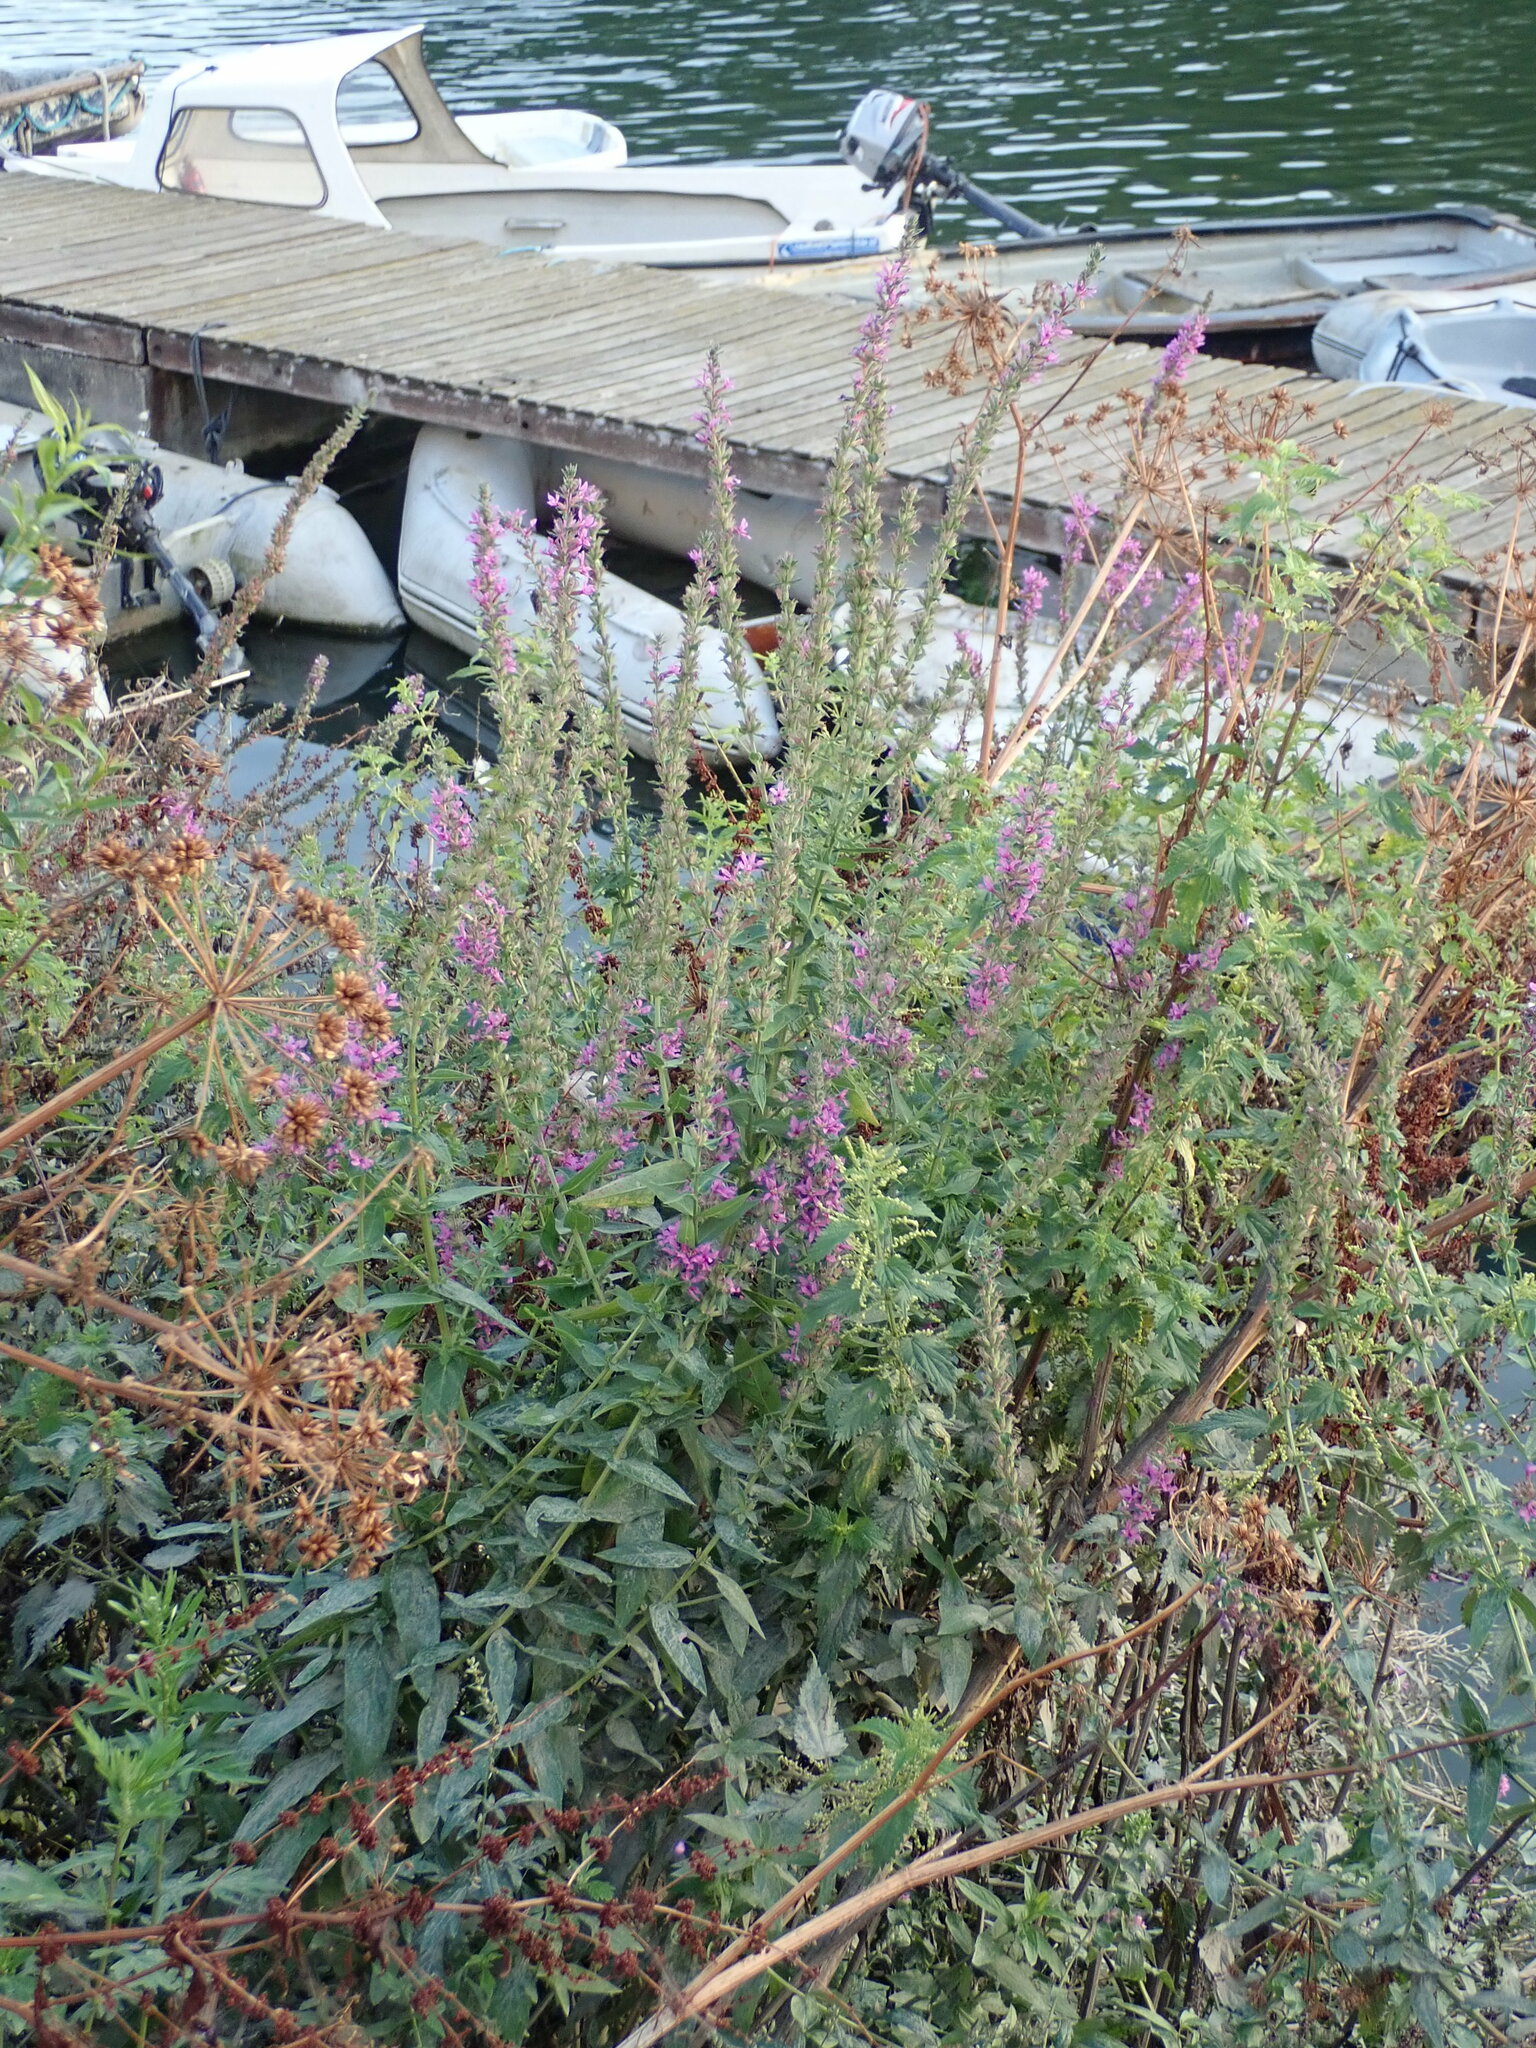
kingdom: Plantae
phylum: Tracheophyta
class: Magnoliopsida
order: Myrtales
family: Lythraceae
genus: Lythrum
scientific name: Lythrum salicaria
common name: Purple loosestrife
